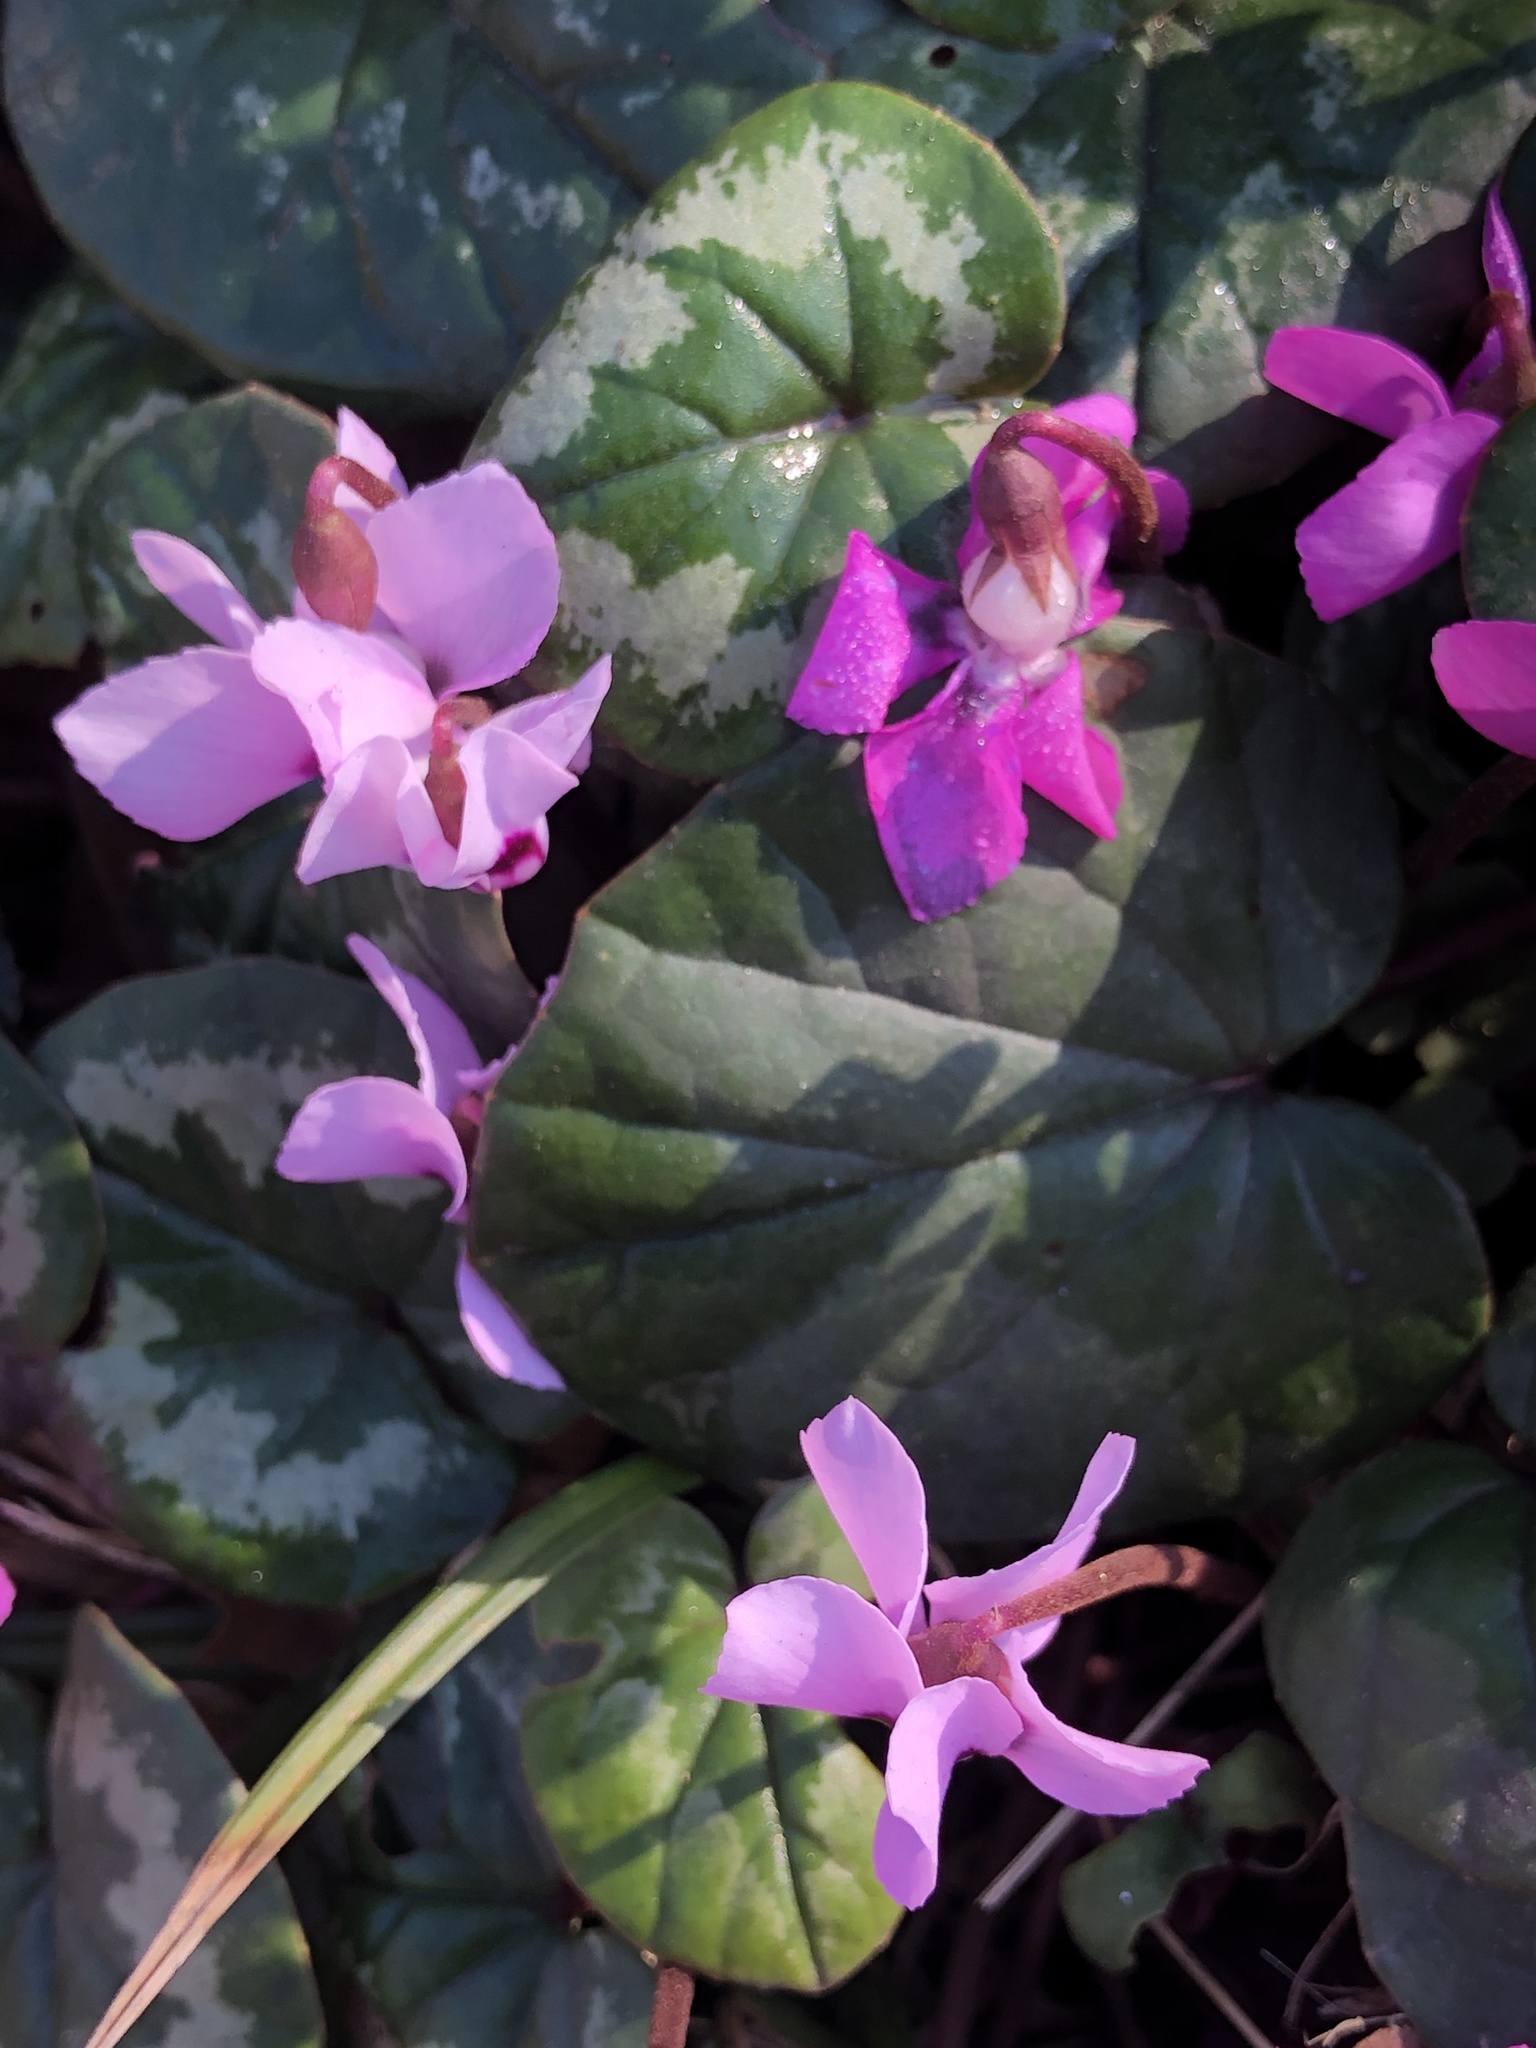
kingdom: Plantae
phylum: Tracheophyta
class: Magnoliopsida
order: Ericales
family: Primulaceae
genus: Cyclamen
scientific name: Cyclamen coum
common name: Eastern sowbread
